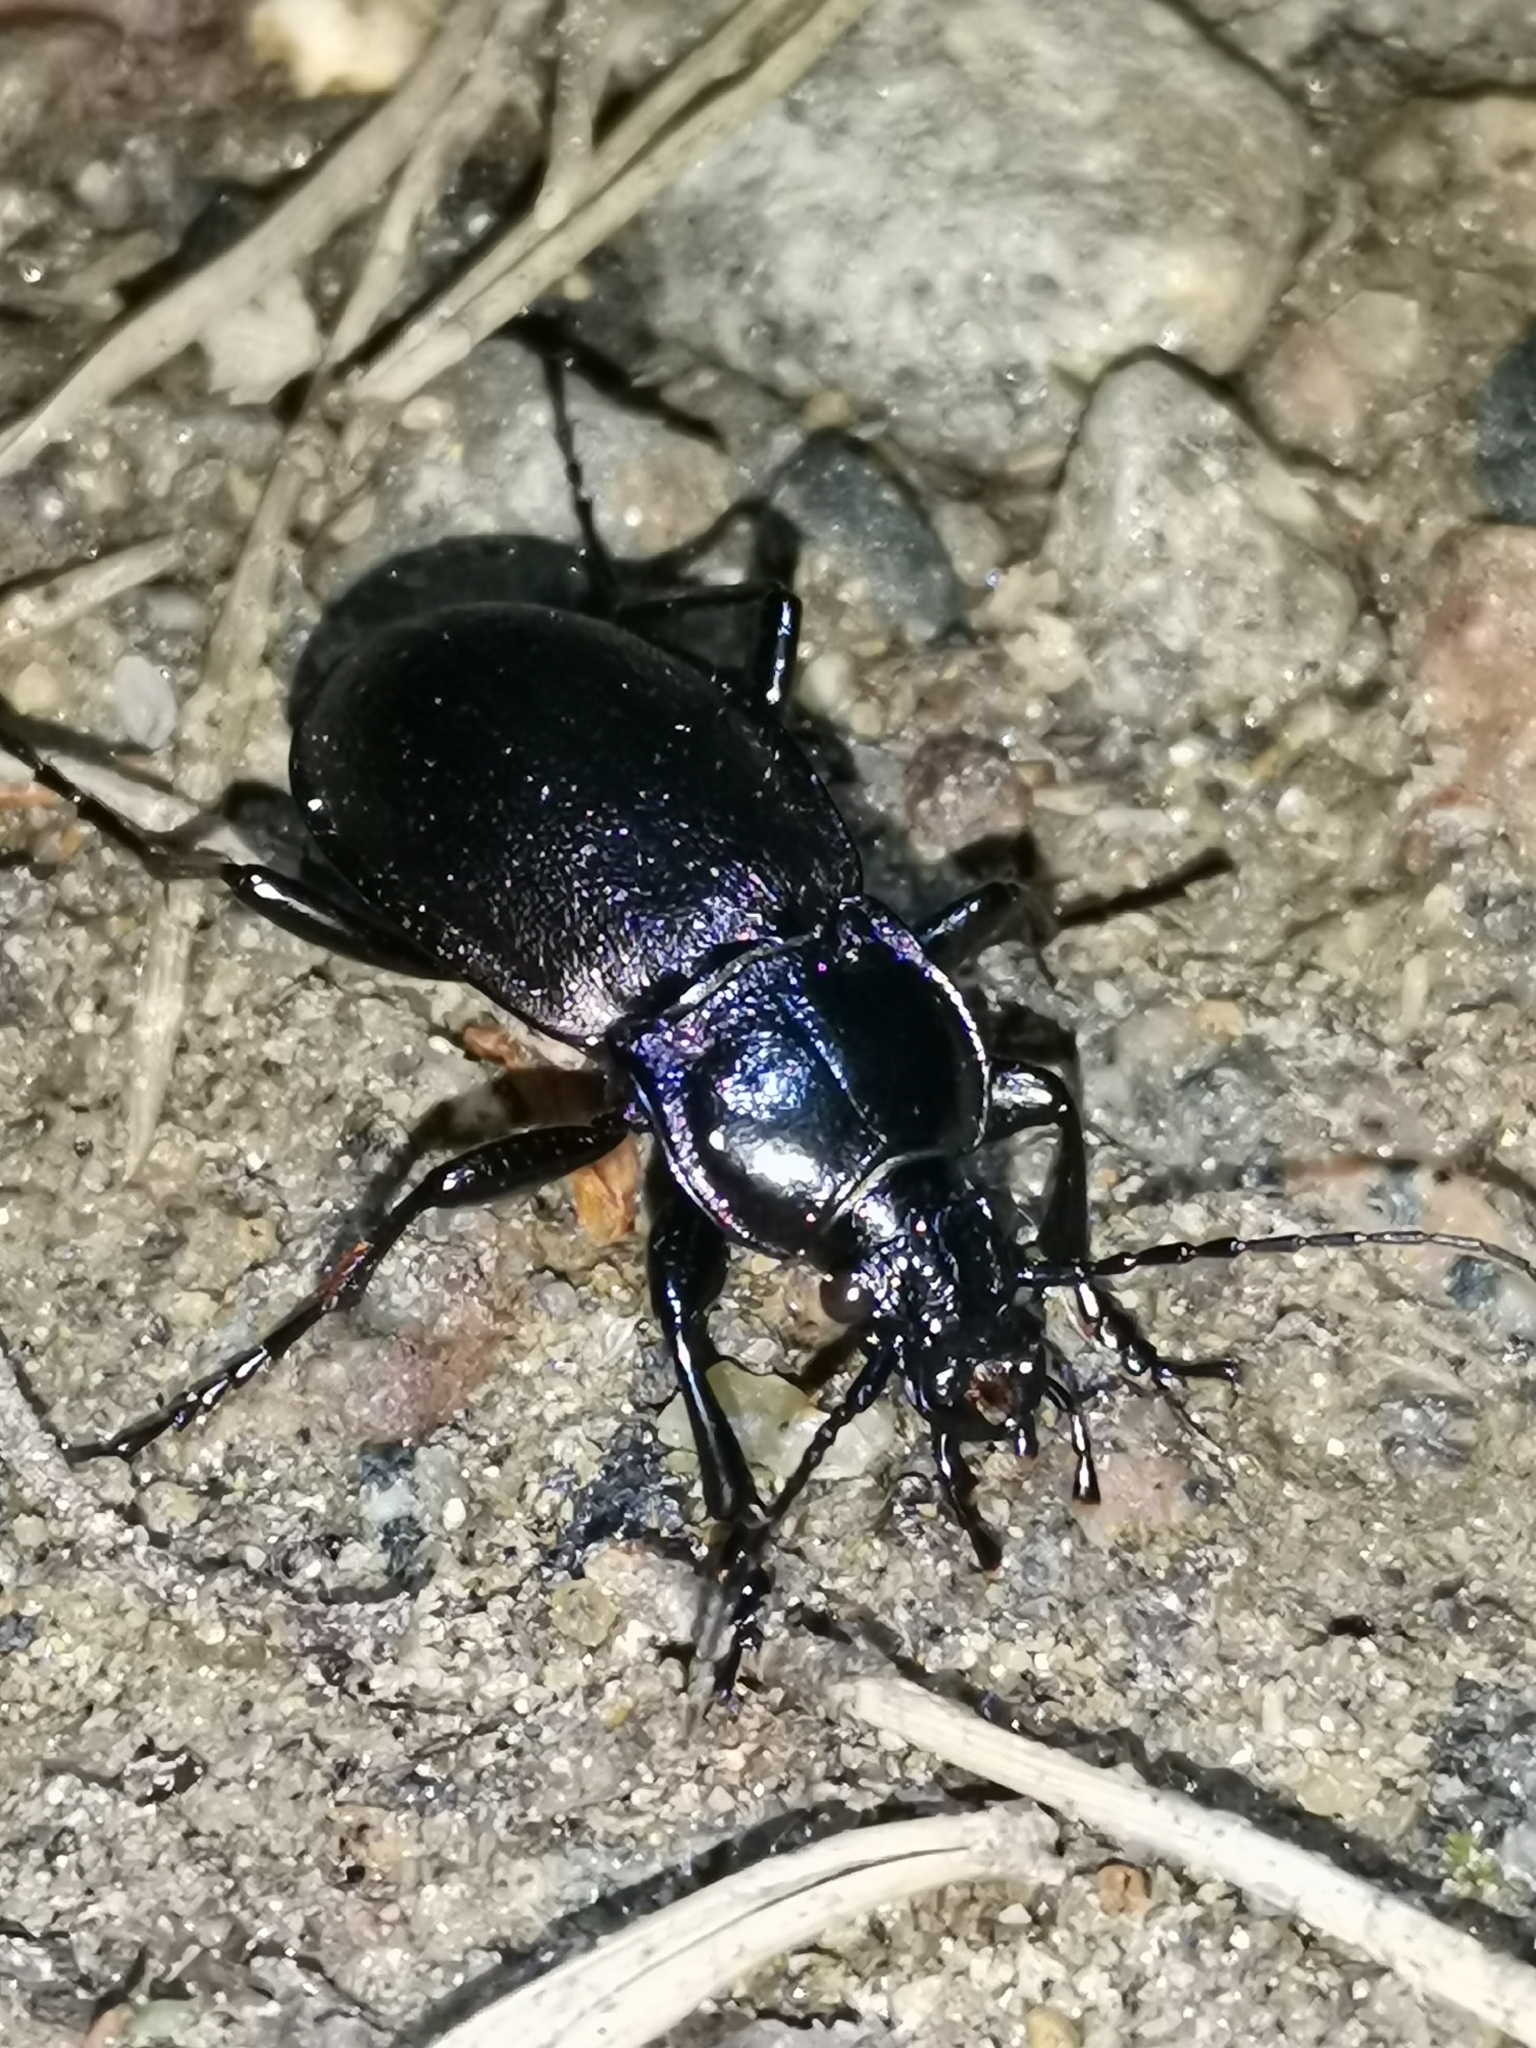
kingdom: Animalia
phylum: Arthropoda
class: Insecta
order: Coleoptera
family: Carabidae
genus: Carabus
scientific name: Carabus nemoralis
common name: European ground beetle
